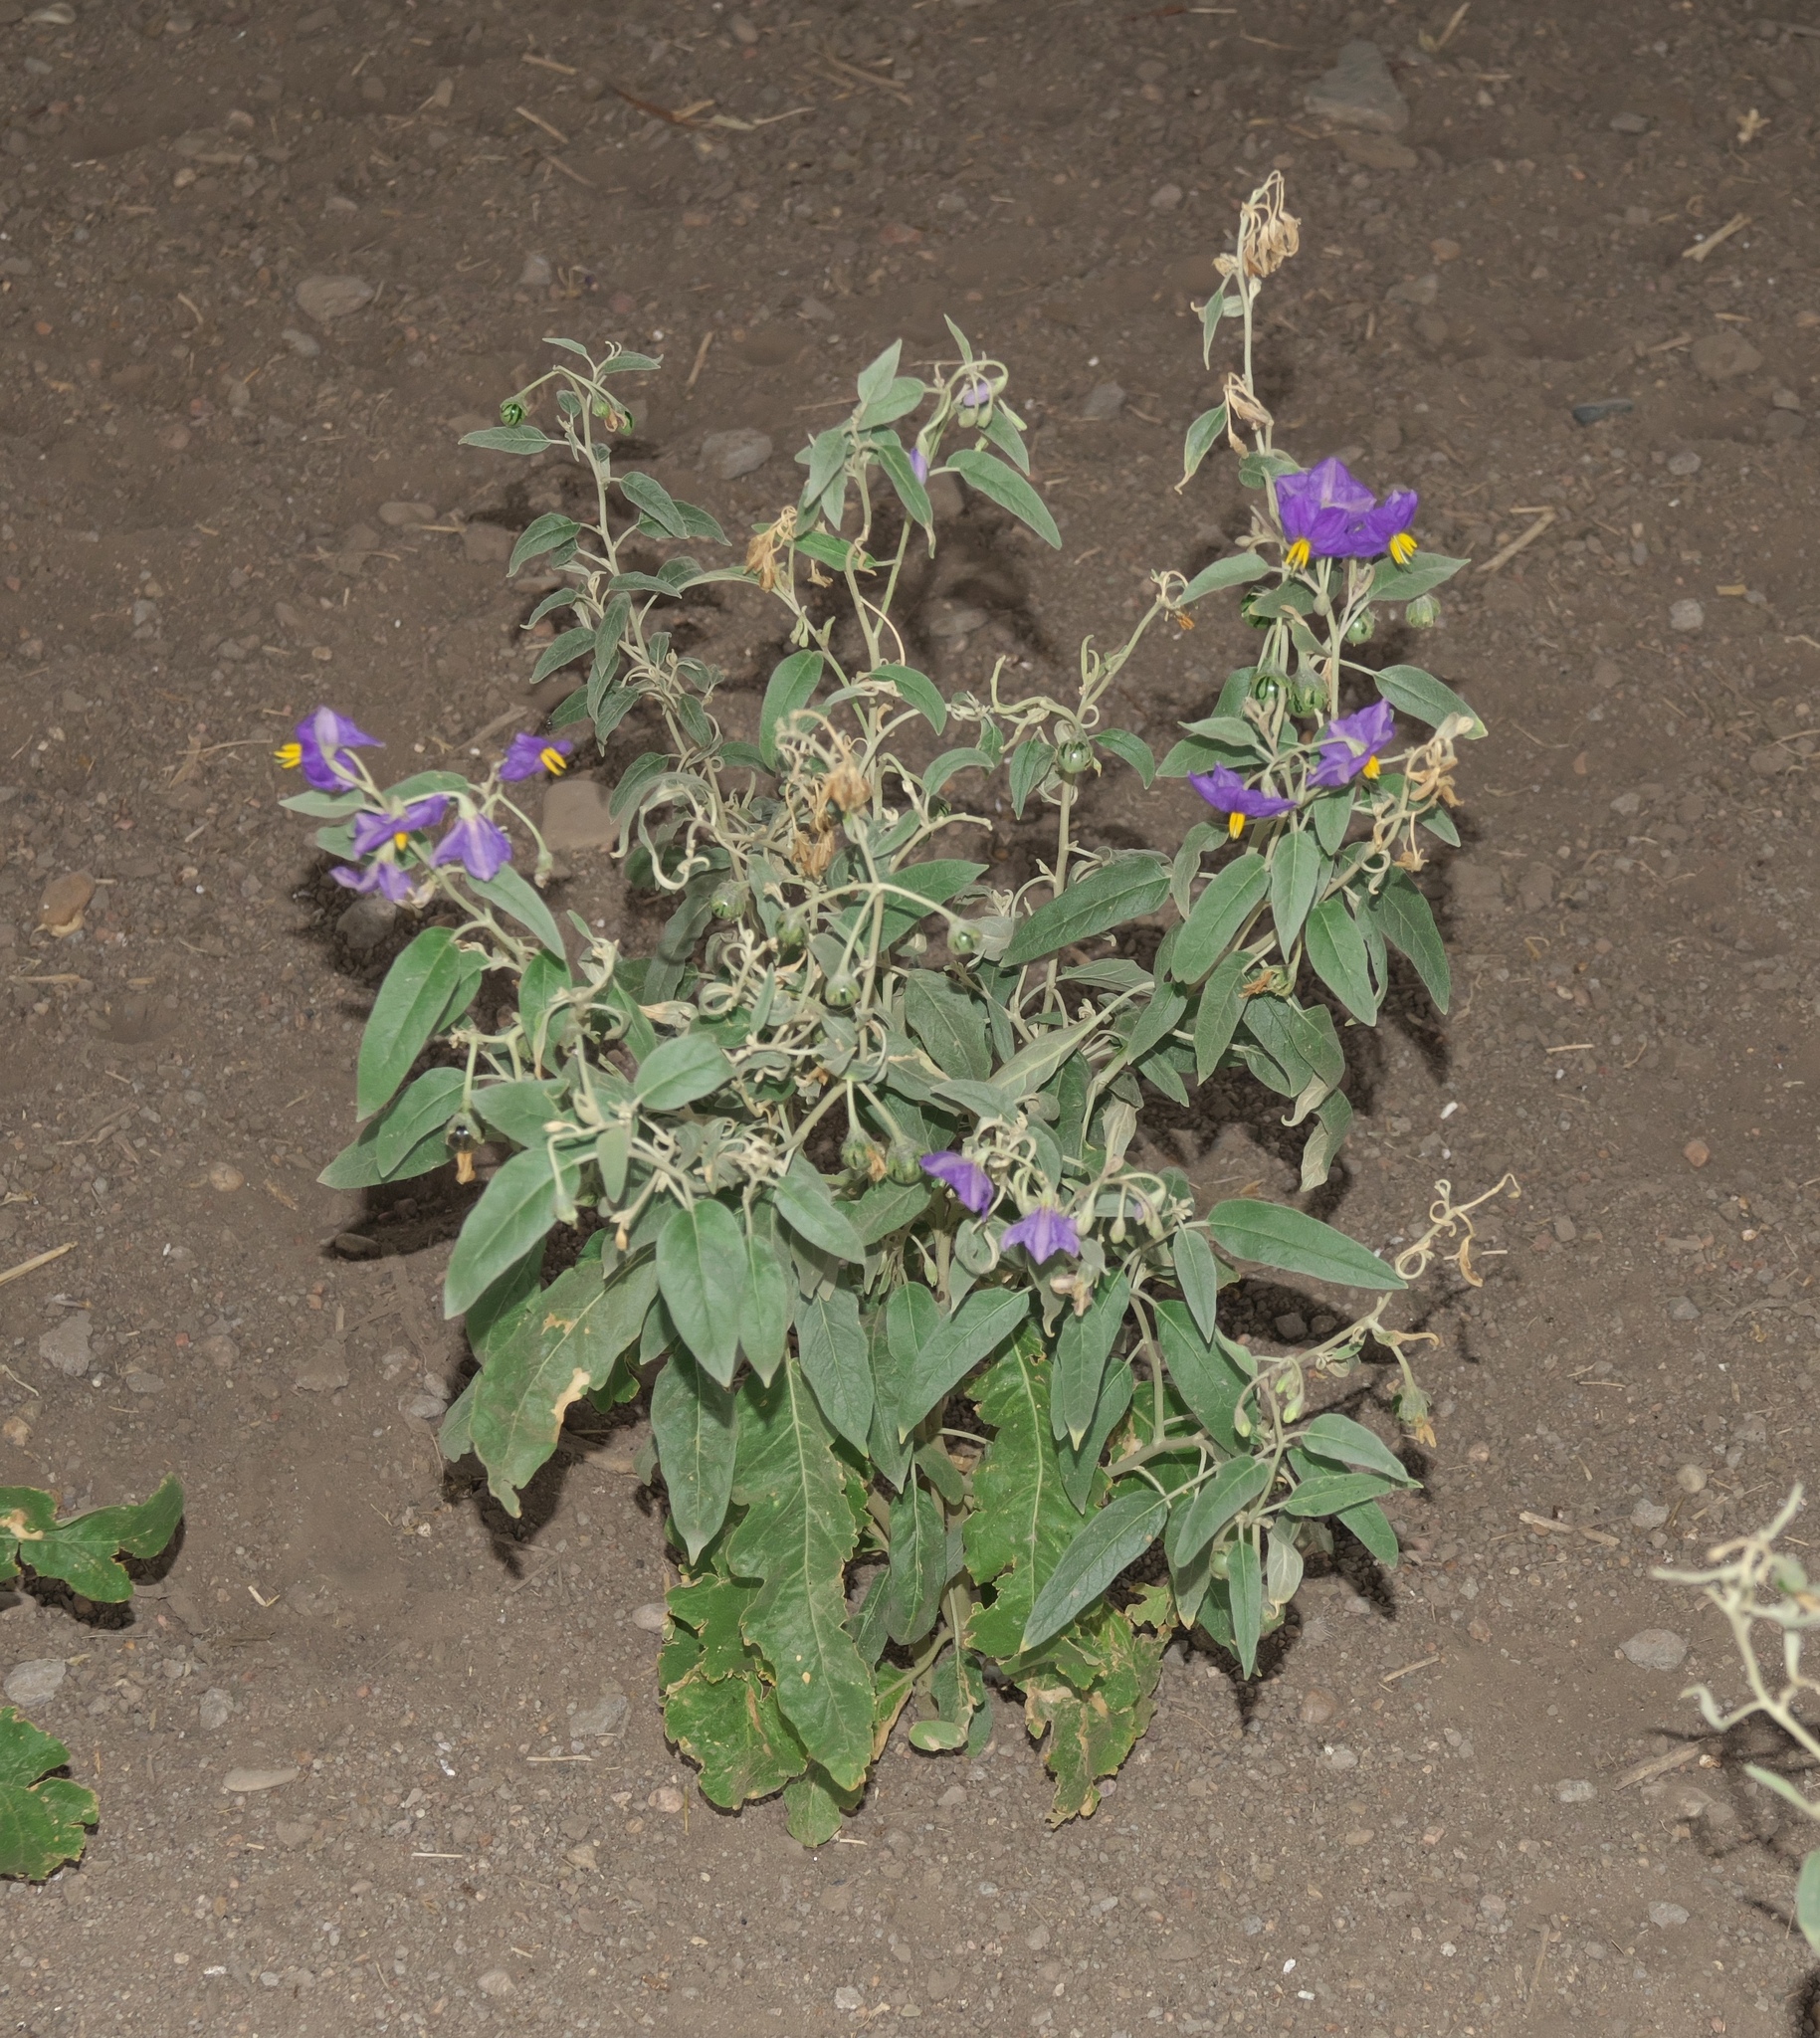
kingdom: Plantae
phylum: Tracheophyta
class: Magnoliopsida
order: Solanales
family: Solanaceae
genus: Solanum
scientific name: Solanum elaeagnifolium
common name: Silverleaf nightshade
